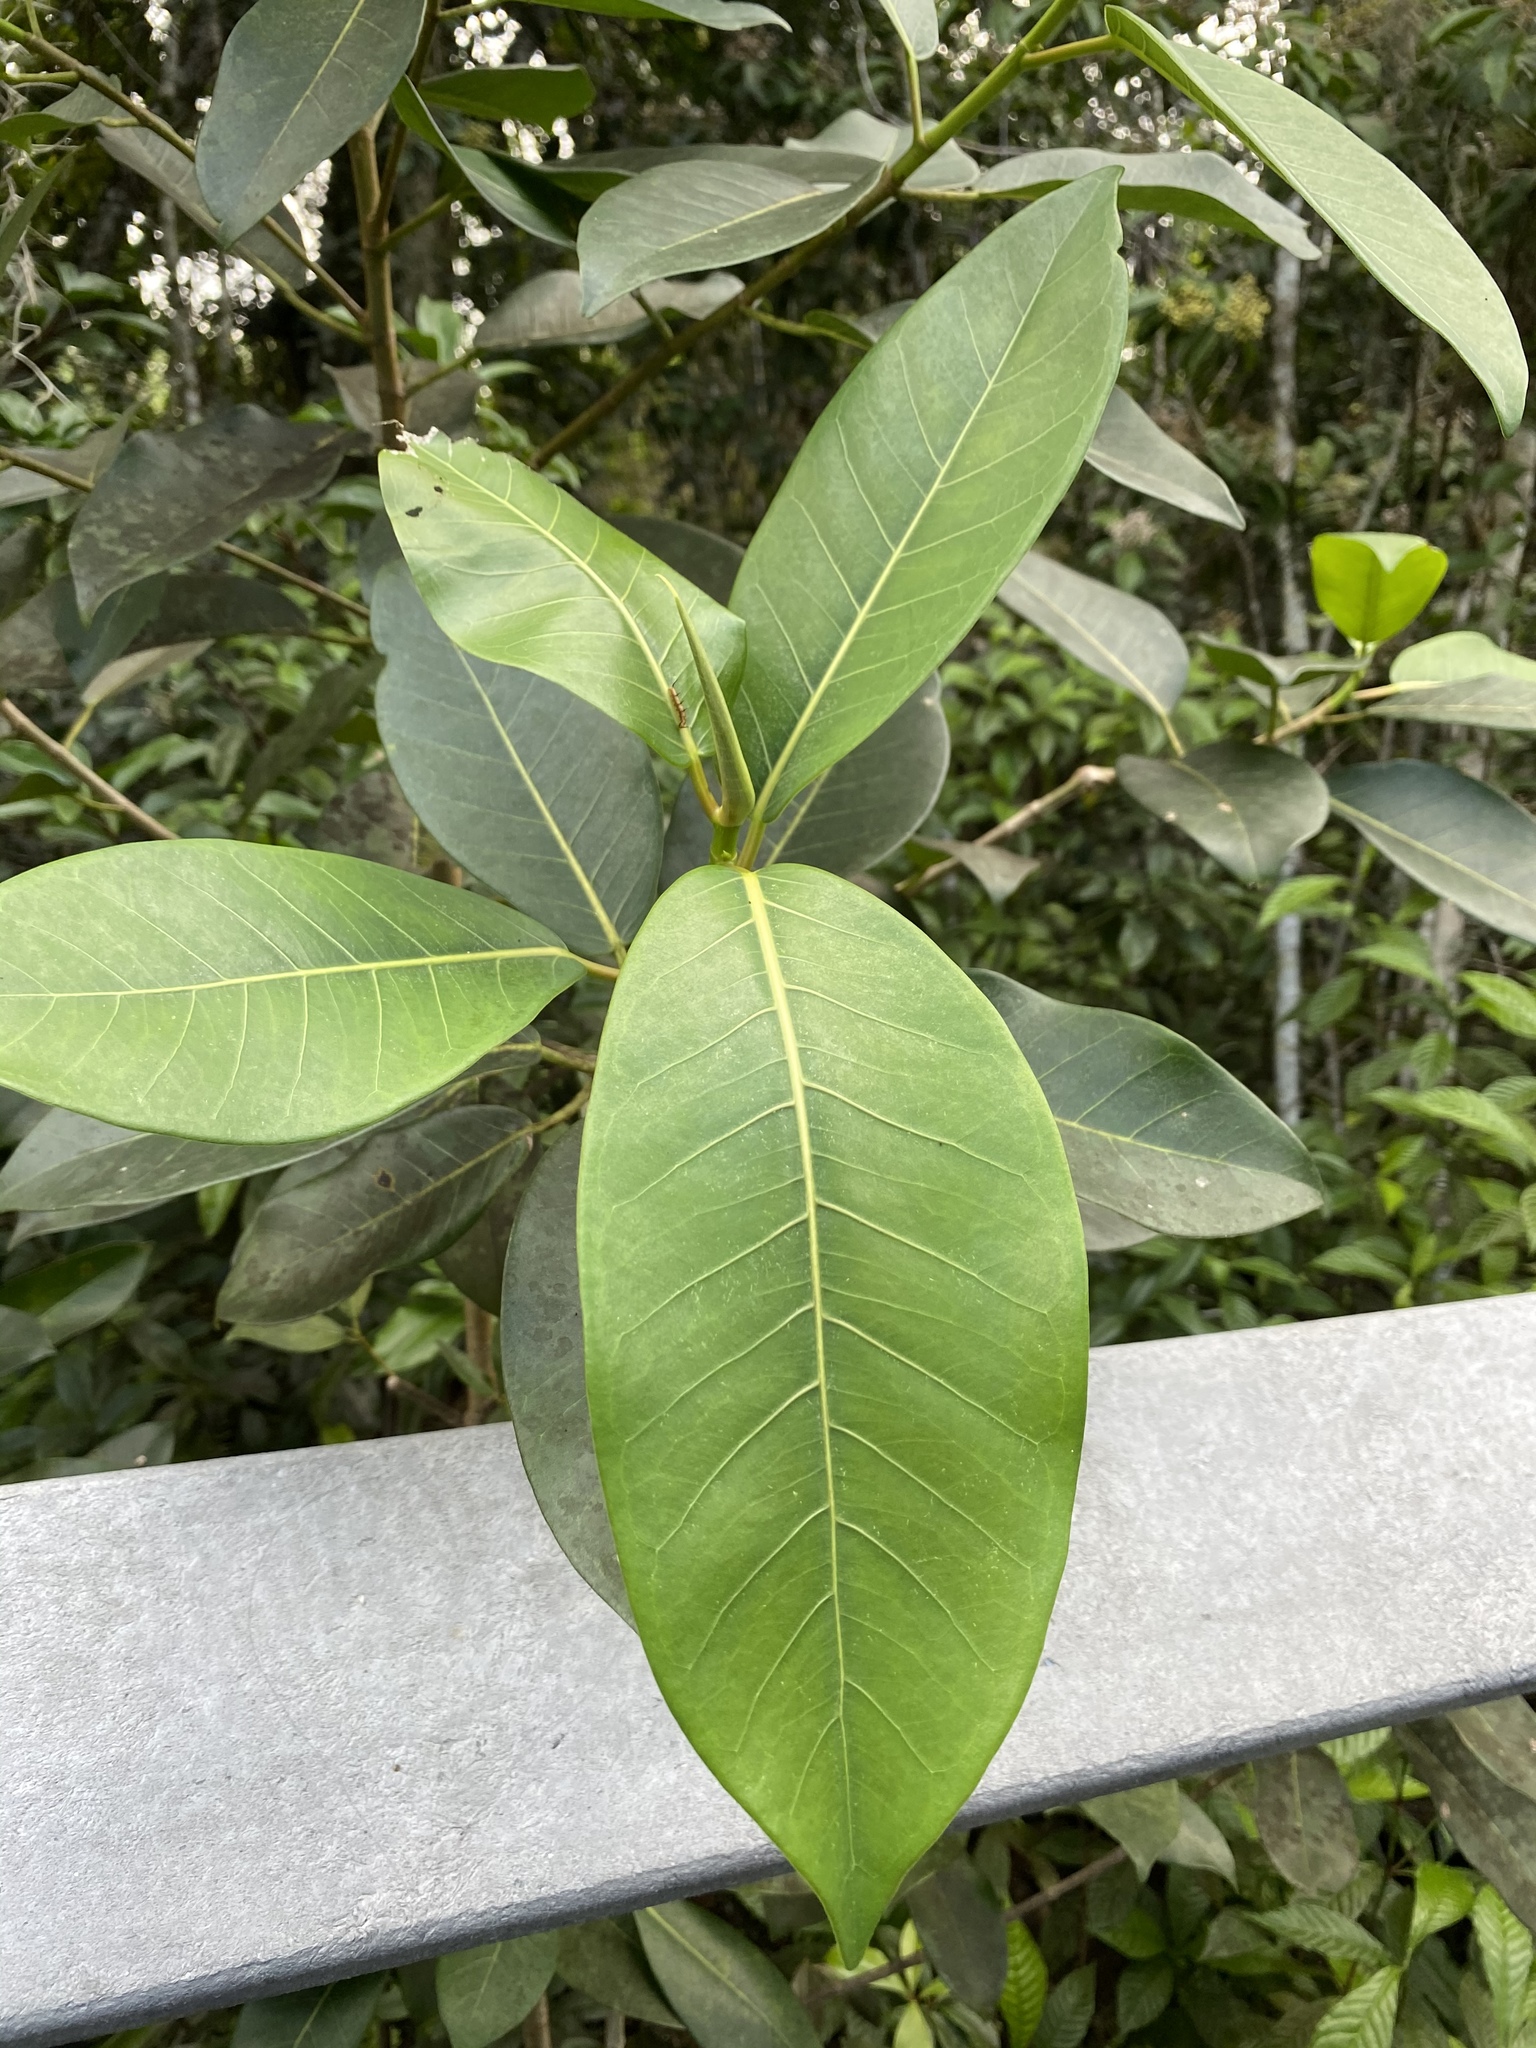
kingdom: Plantae
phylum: Tracheophyta
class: Magnoliopsida
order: Rosales
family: Moraceae
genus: Ficus
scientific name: Ficus aurea
